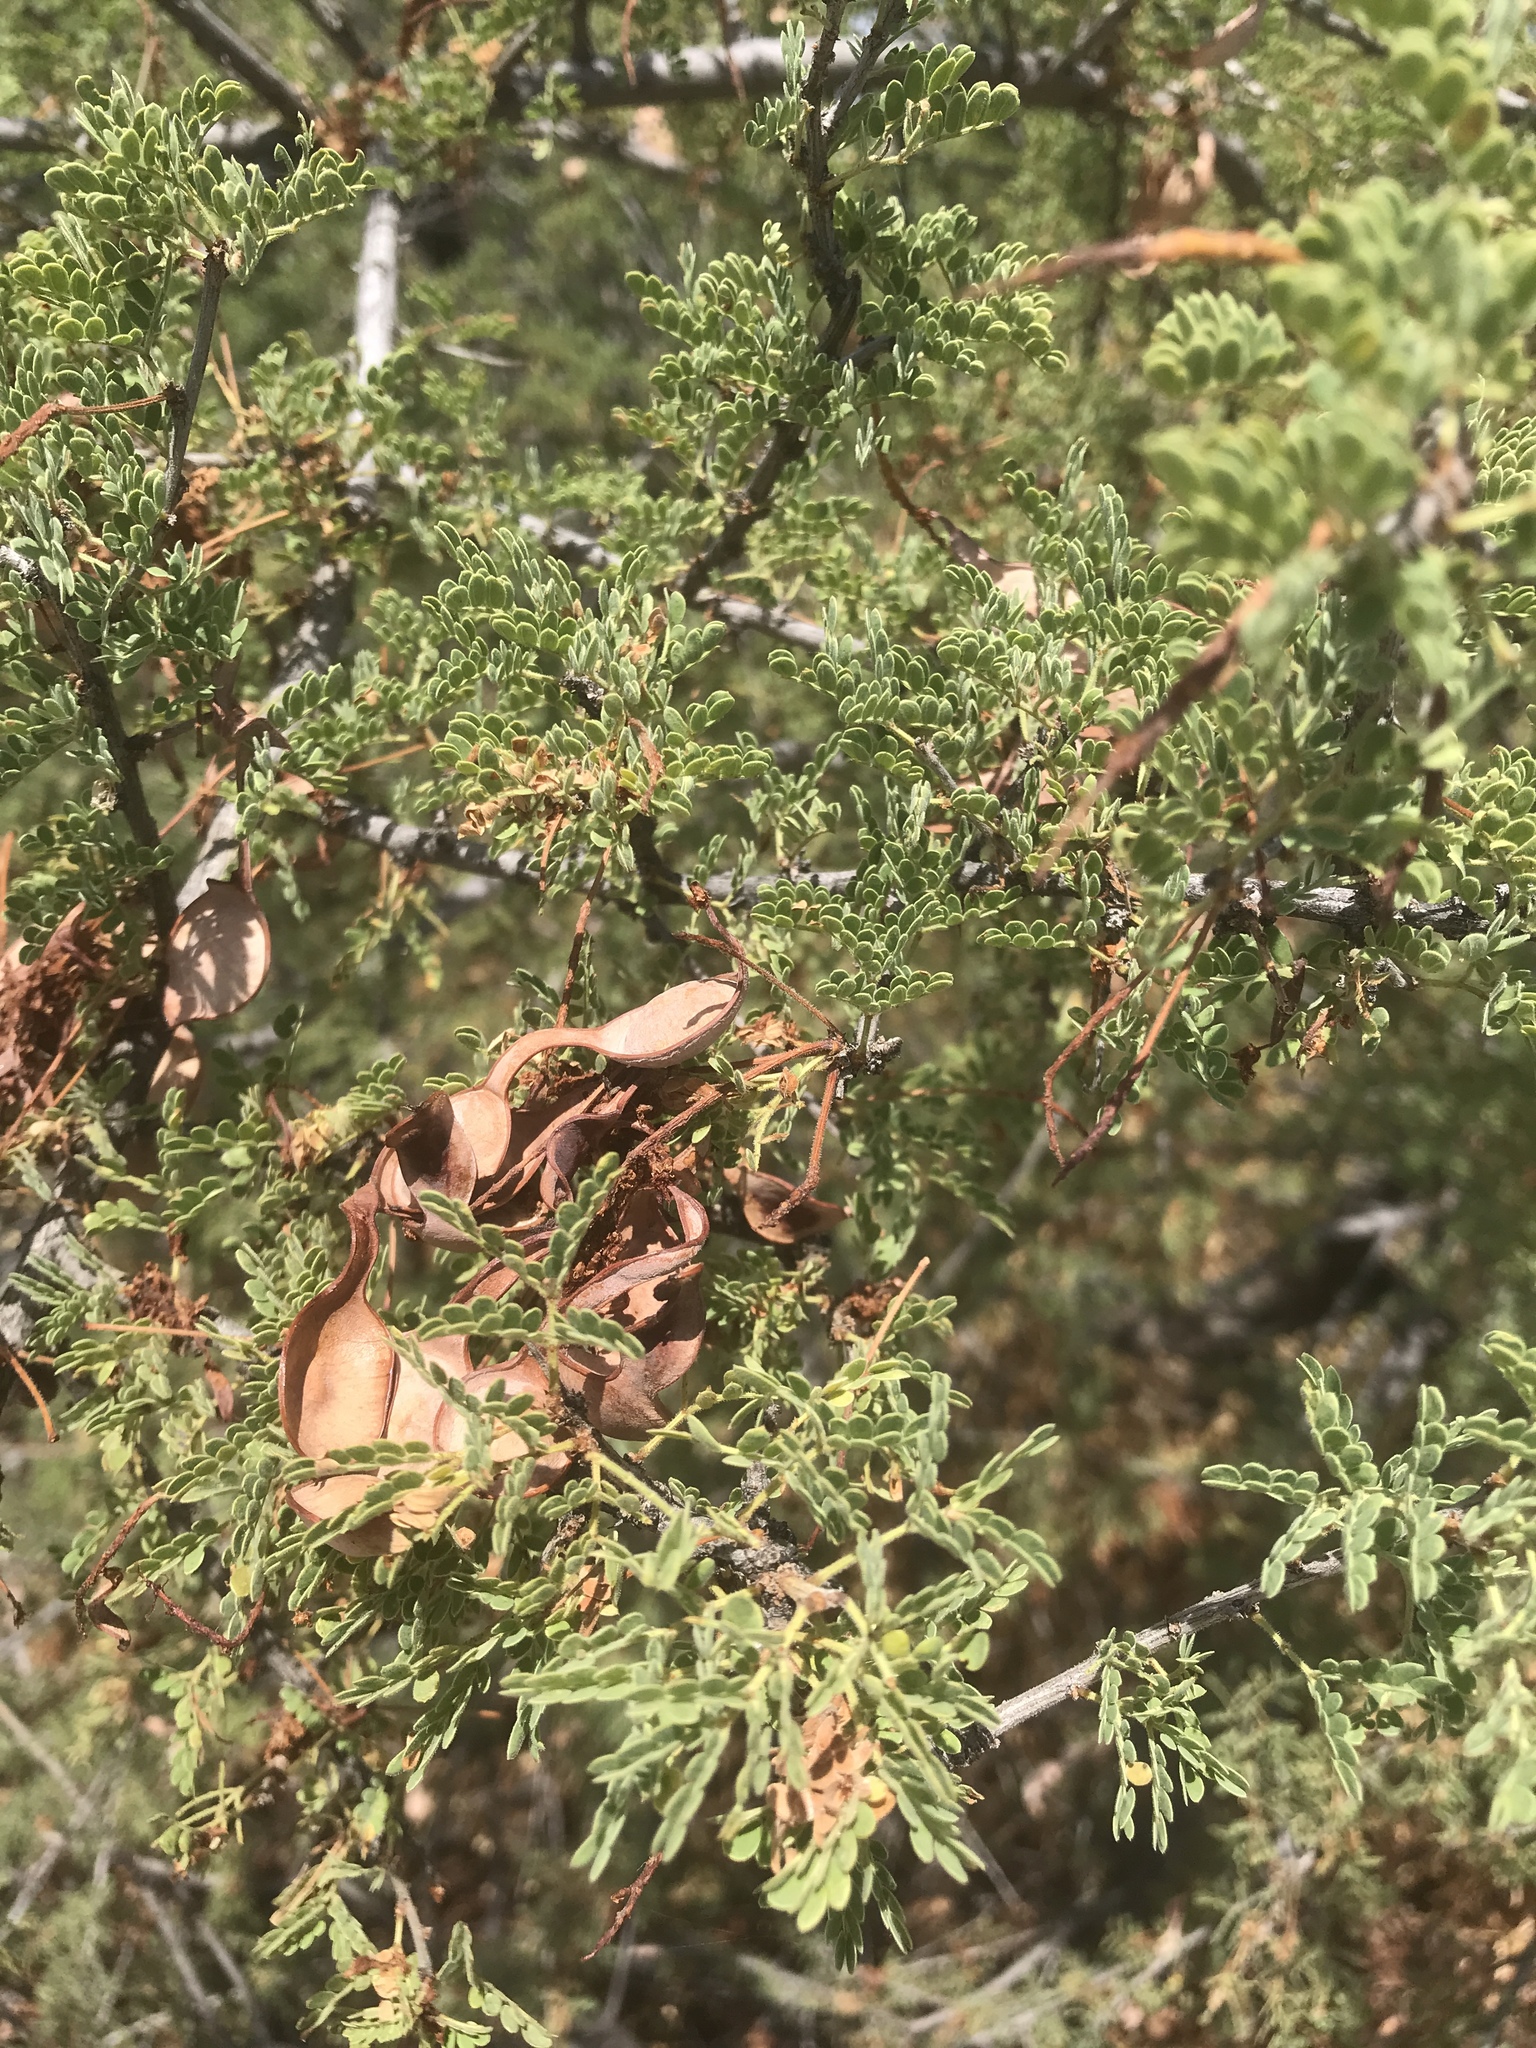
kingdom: Plantae
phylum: Tracheophyta
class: Magnoliopsida
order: Fabales
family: Fabaceae
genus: Senegalia
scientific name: Senegalia greggii
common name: Texas-mimosa
